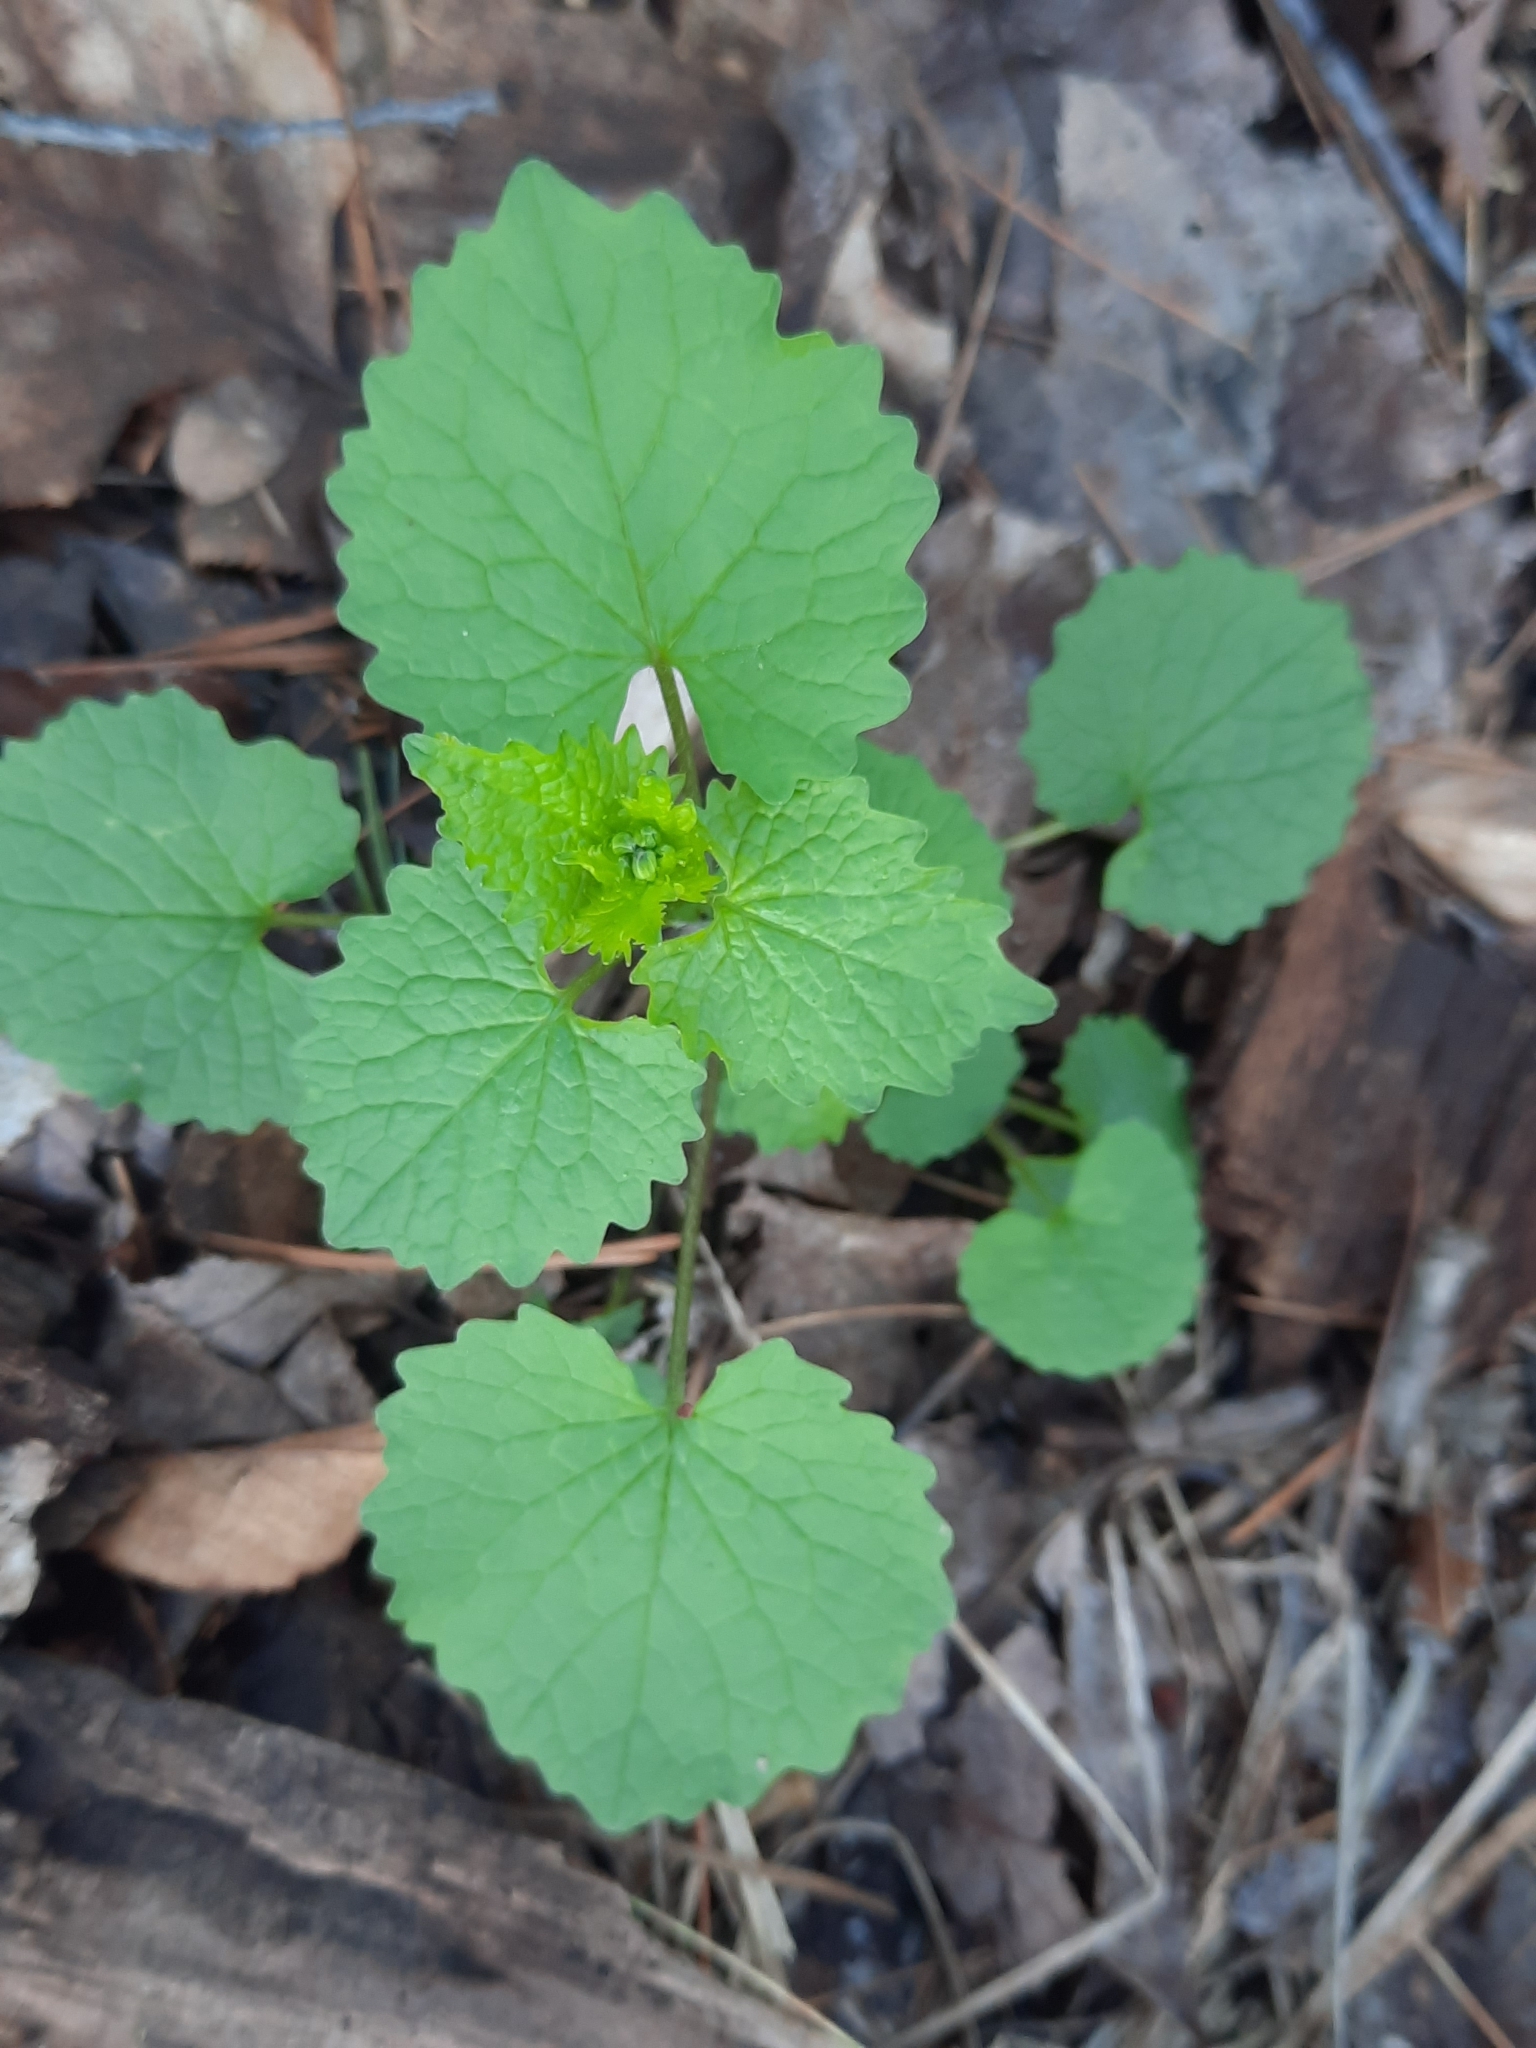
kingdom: Plantae
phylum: Tracheophyta
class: Magnoliopsida
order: Brassicales
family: Brassicaceae
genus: Alliaria
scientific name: Alliaria petiolata
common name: Garlic mustard
